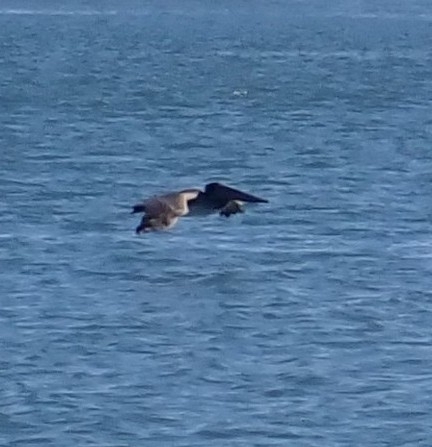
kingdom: Animalia
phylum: Chordata
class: Aves
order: Pelecaniformes
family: Pelecanidae
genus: Pelecanus
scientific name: Pelecanus occidentalis
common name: Brown pelican
